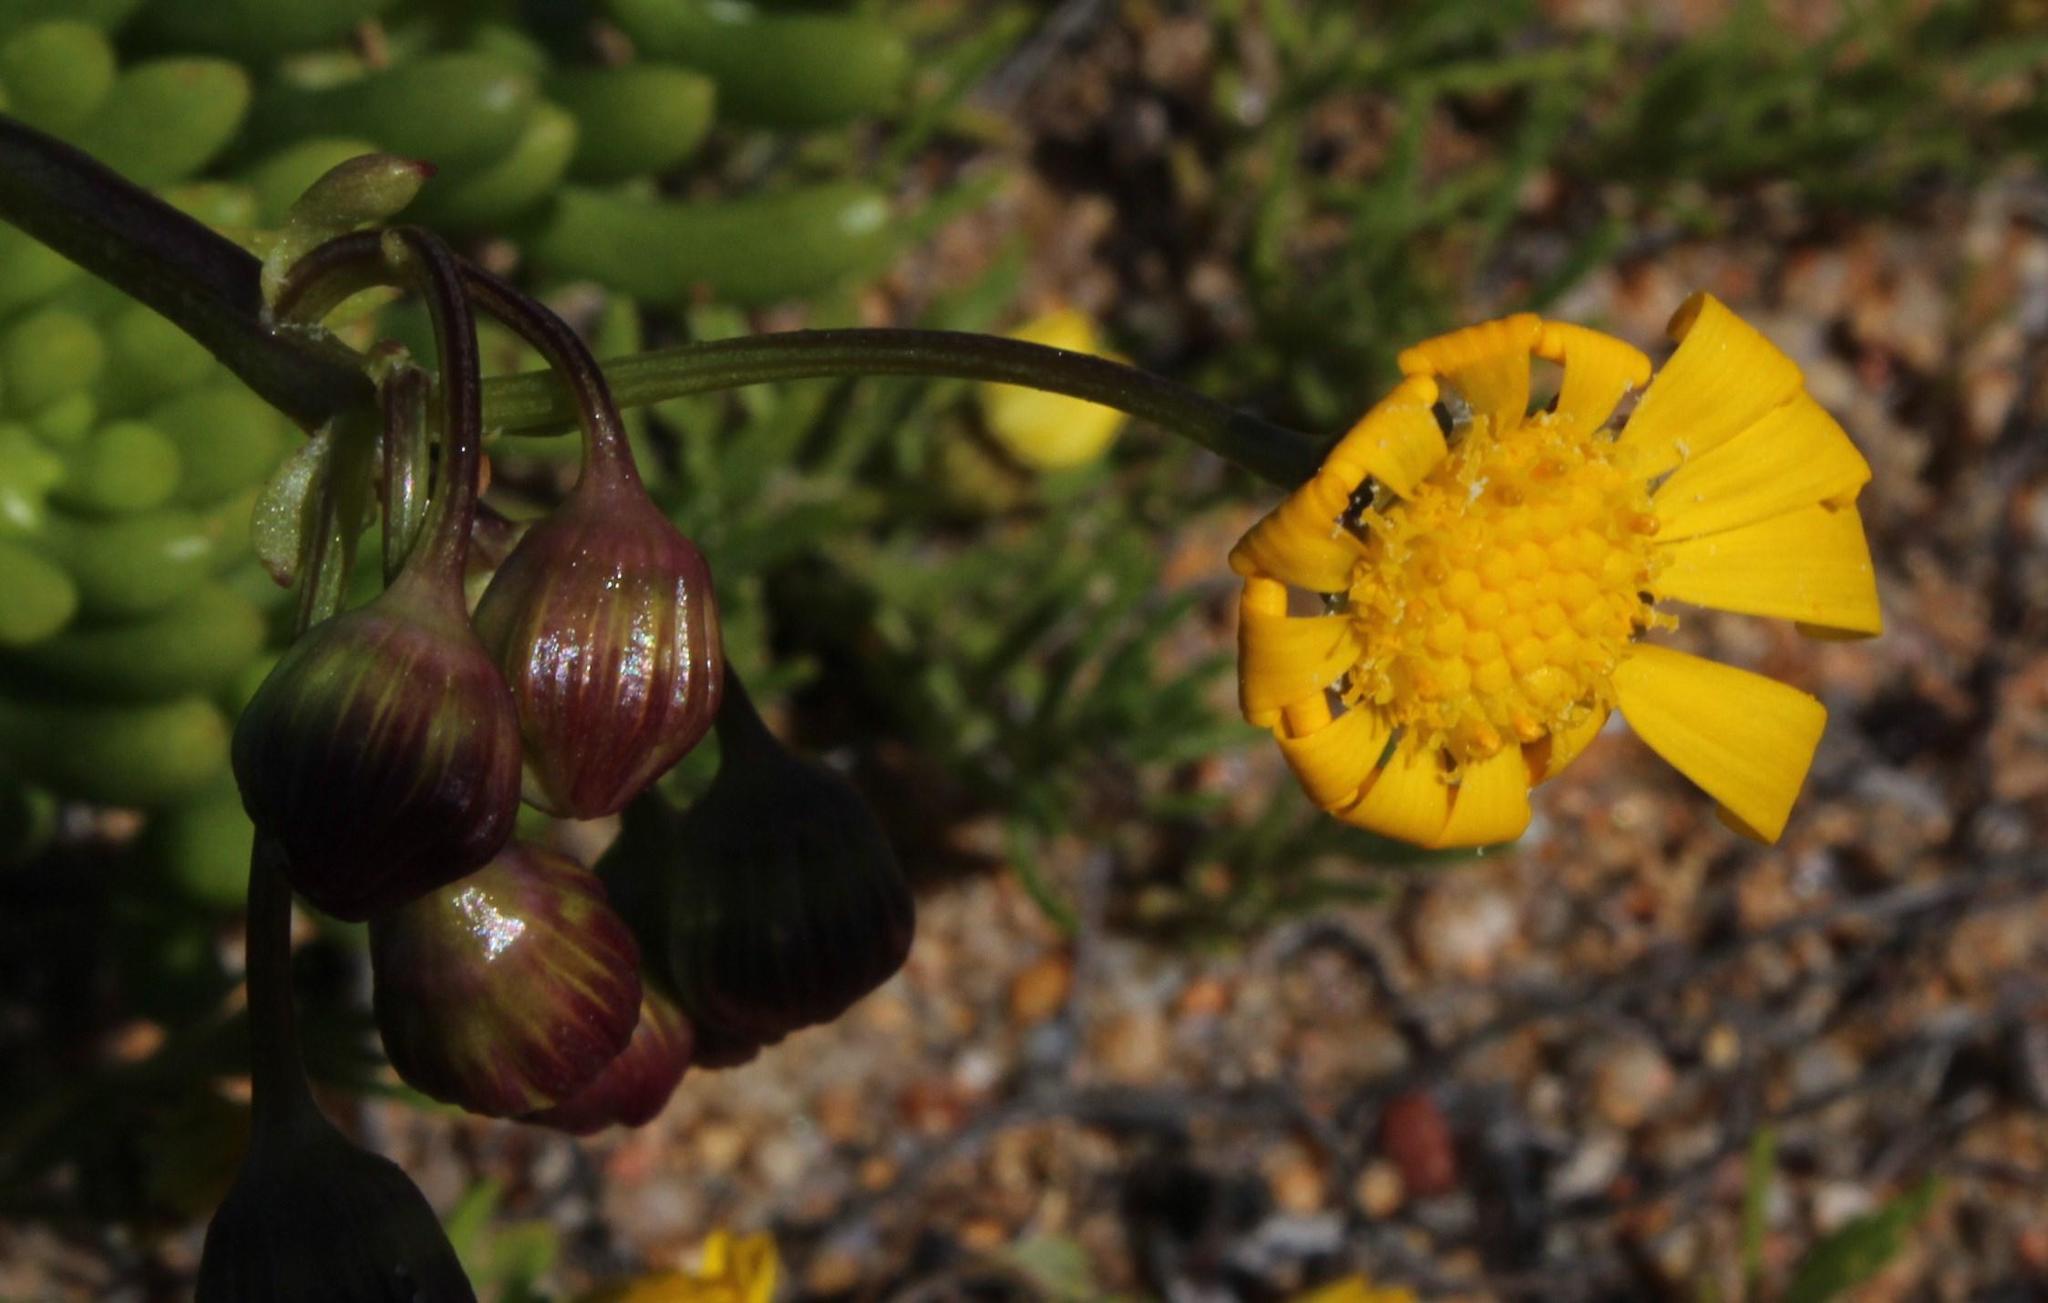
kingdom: Plantae
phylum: Tracheophyta
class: Magnoliopsida
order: Asterales
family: Asteraceae
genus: Crassothonna
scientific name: Crassothonna cylindrica
